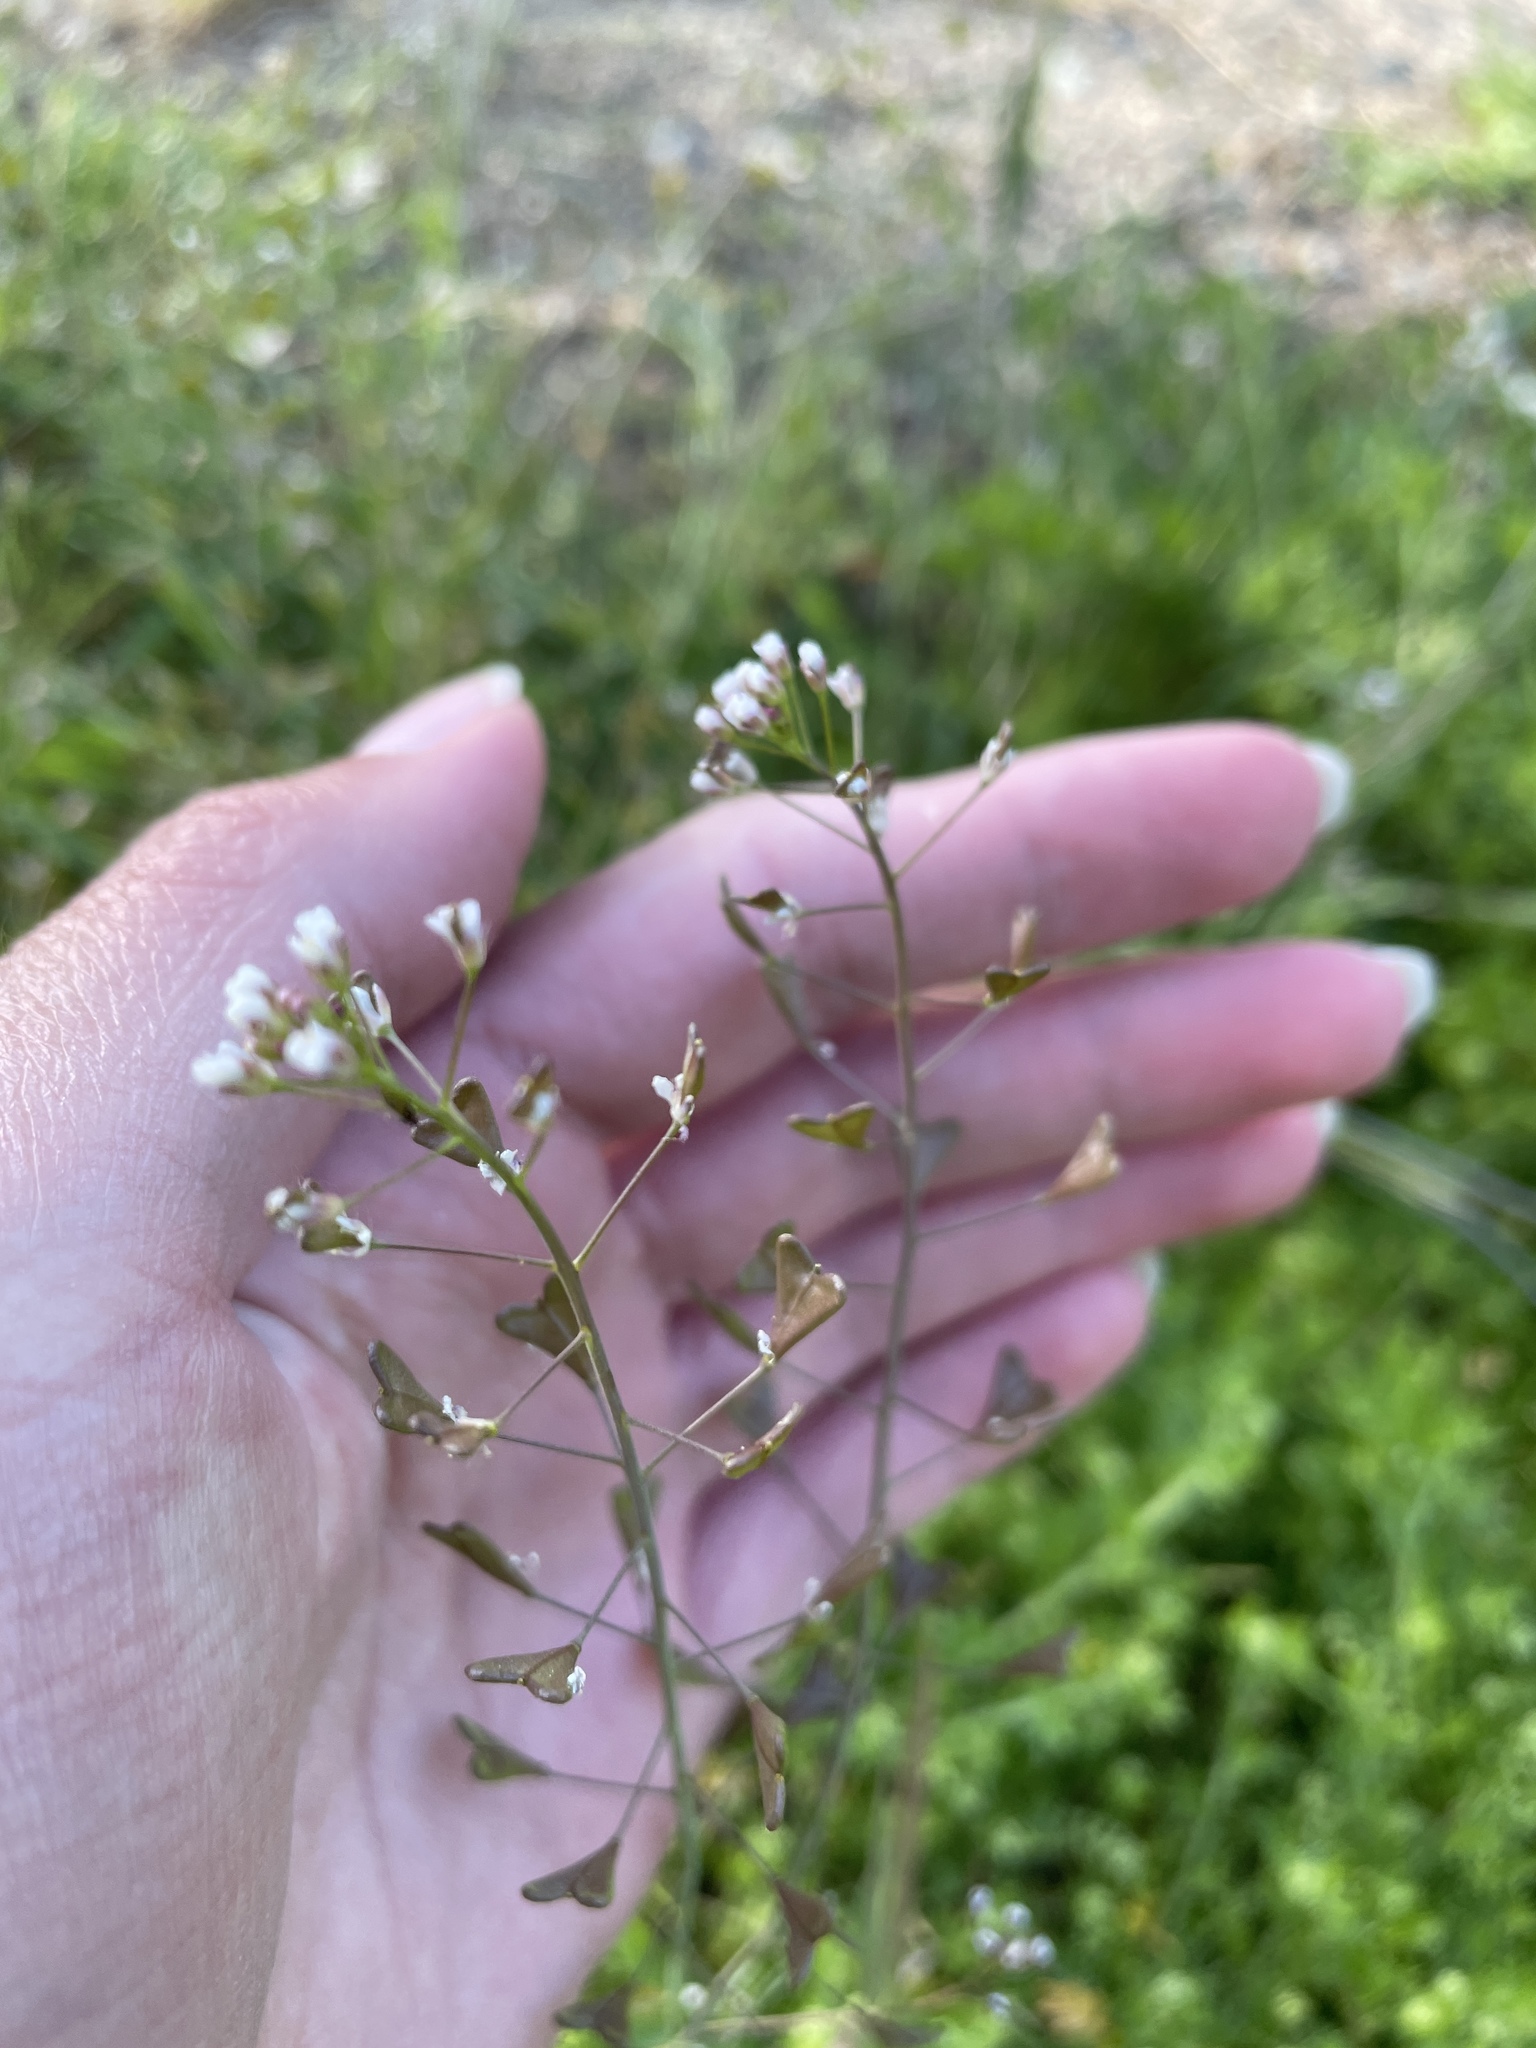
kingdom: Plantae
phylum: Tracheophyta
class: Magnoliopsida
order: Brassicales
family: Brassicaceae
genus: Capsella
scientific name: Capsella bursa-pastoris
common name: Shepherd's purse
